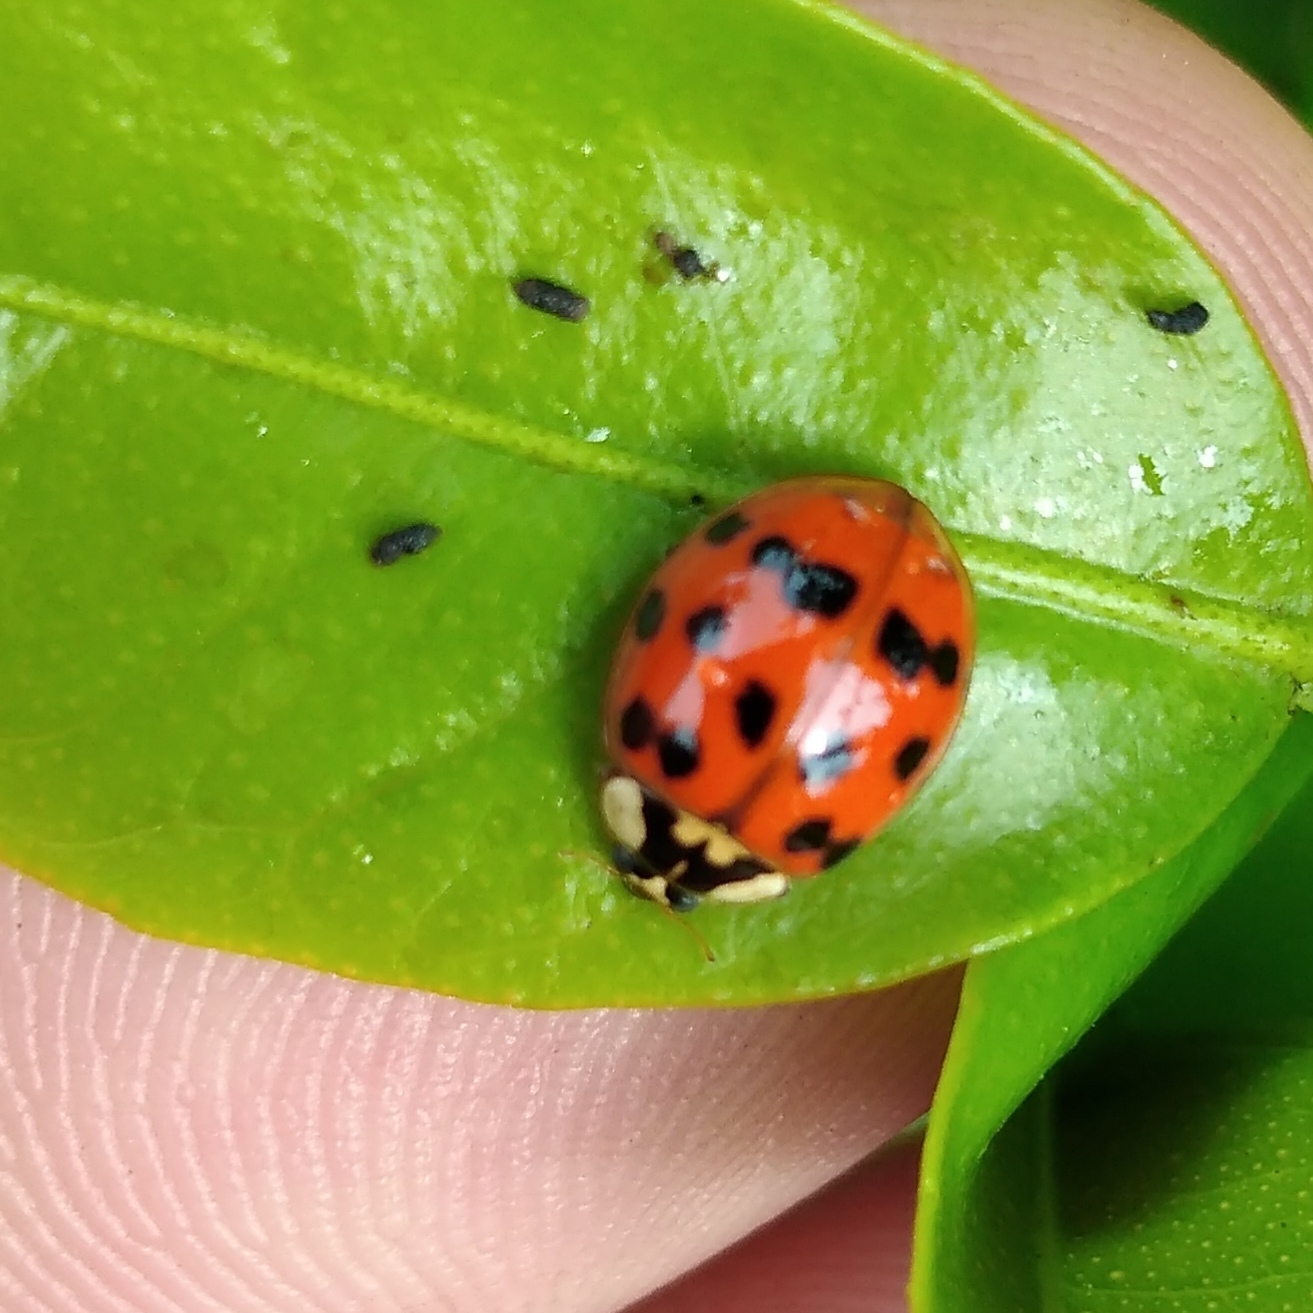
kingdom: Animalia
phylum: Arthropoda
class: Insecta
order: Coleoptera
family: Coccinellidae
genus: Harmonia
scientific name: Harmonia axyridis
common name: Harlequin ladybird
